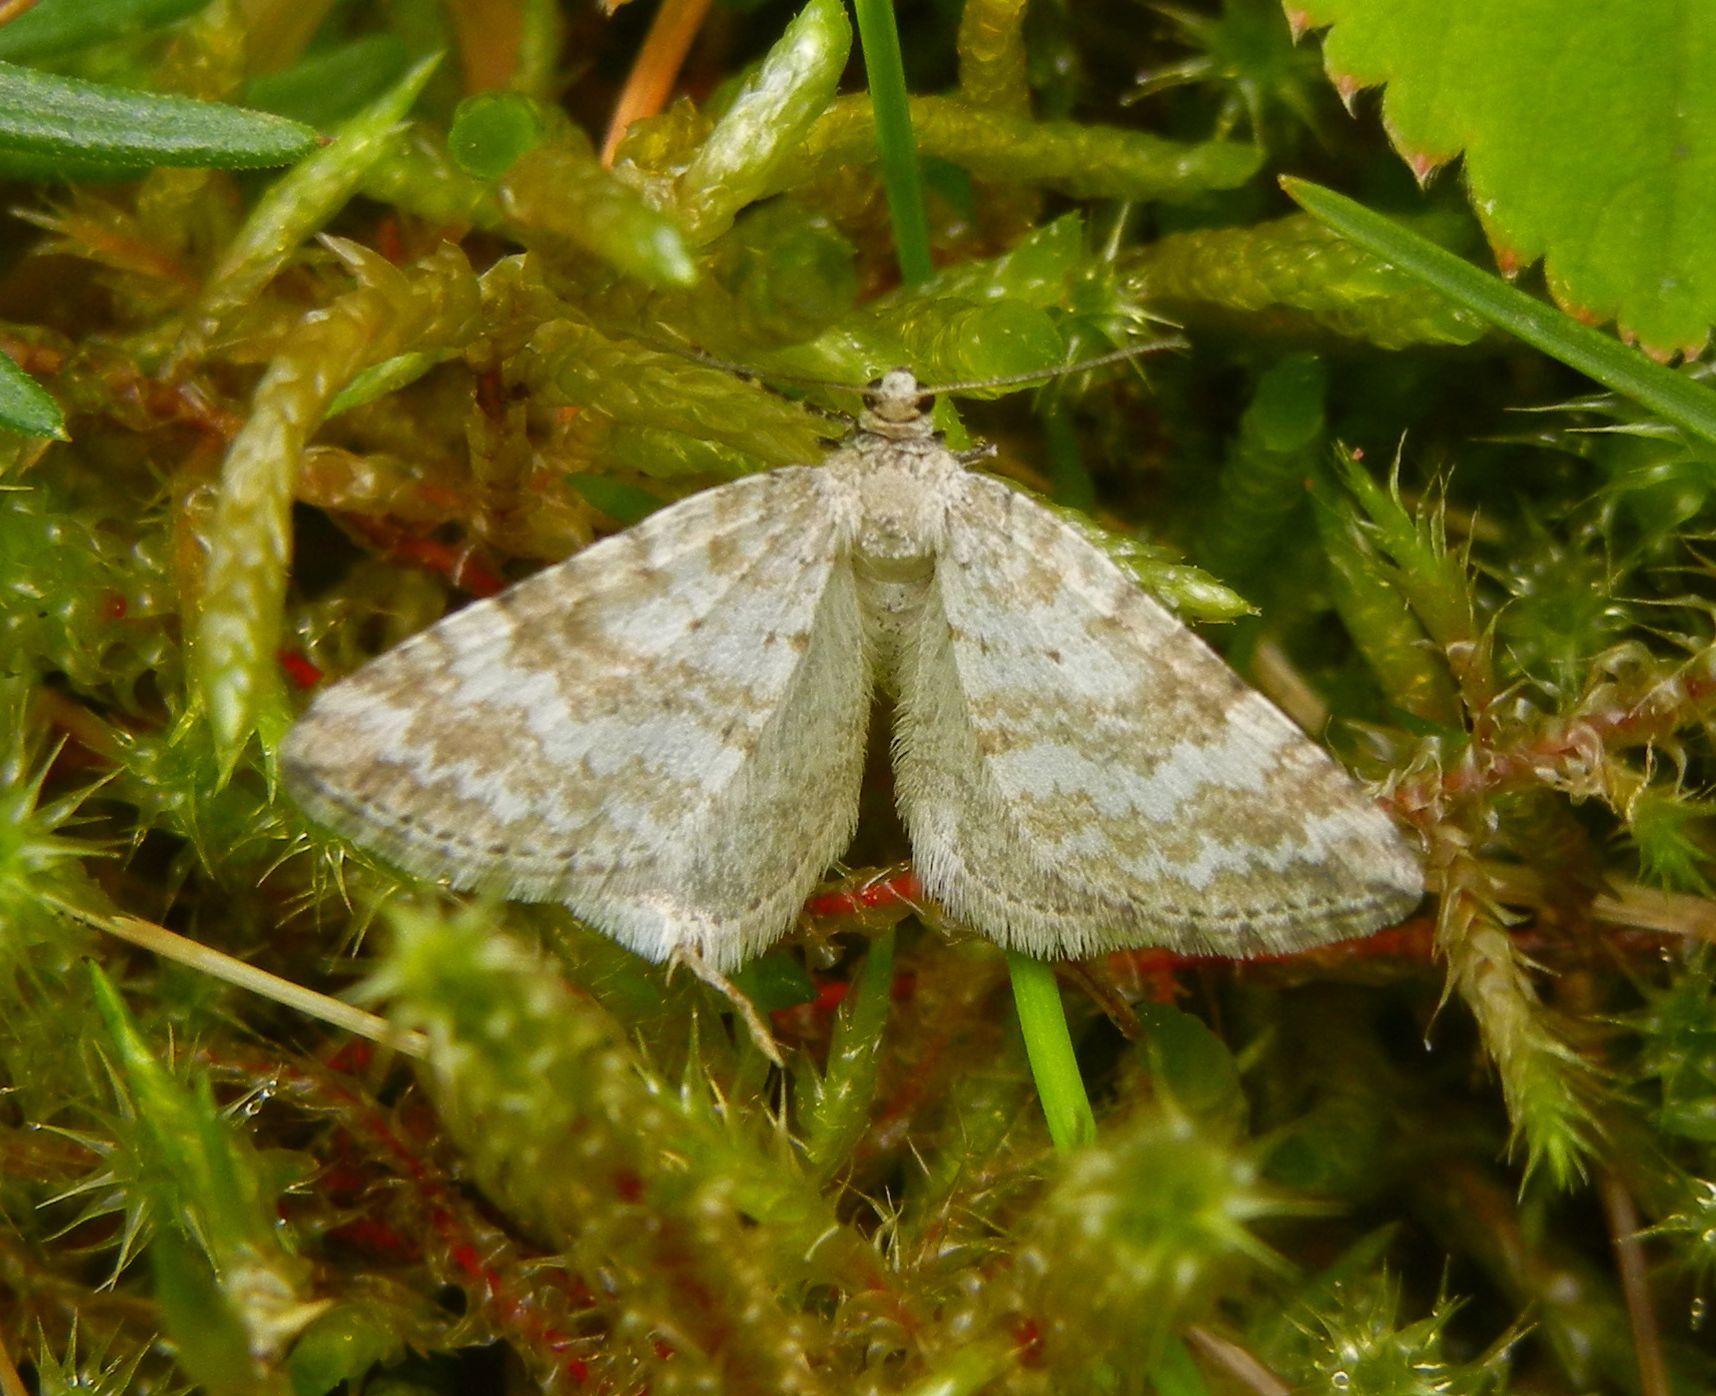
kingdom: Animalia
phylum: Arthropoda
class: Insecta
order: Lepidoptera
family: Geometridae
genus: Perizoma
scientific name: Perizoma albulata
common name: Grass rivulet
